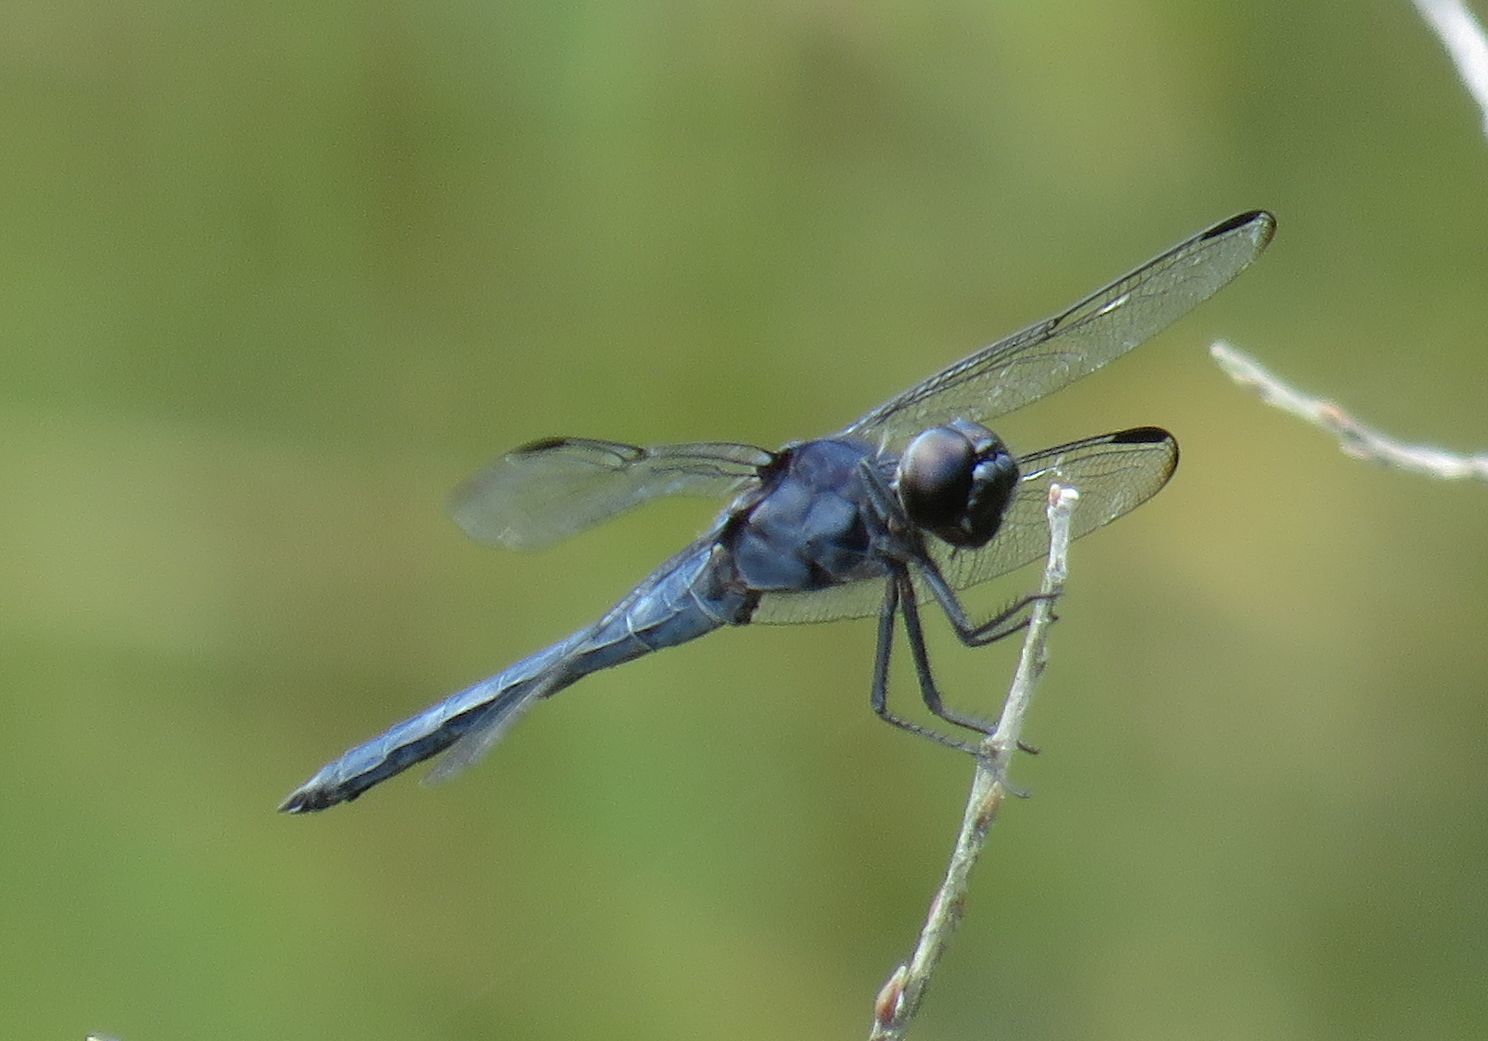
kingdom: Animalia
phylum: Arthropoda
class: Insecta
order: Odonata
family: Libellulidae
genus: Libellula
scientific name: Libellula incesta
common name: Slaty skimmer
